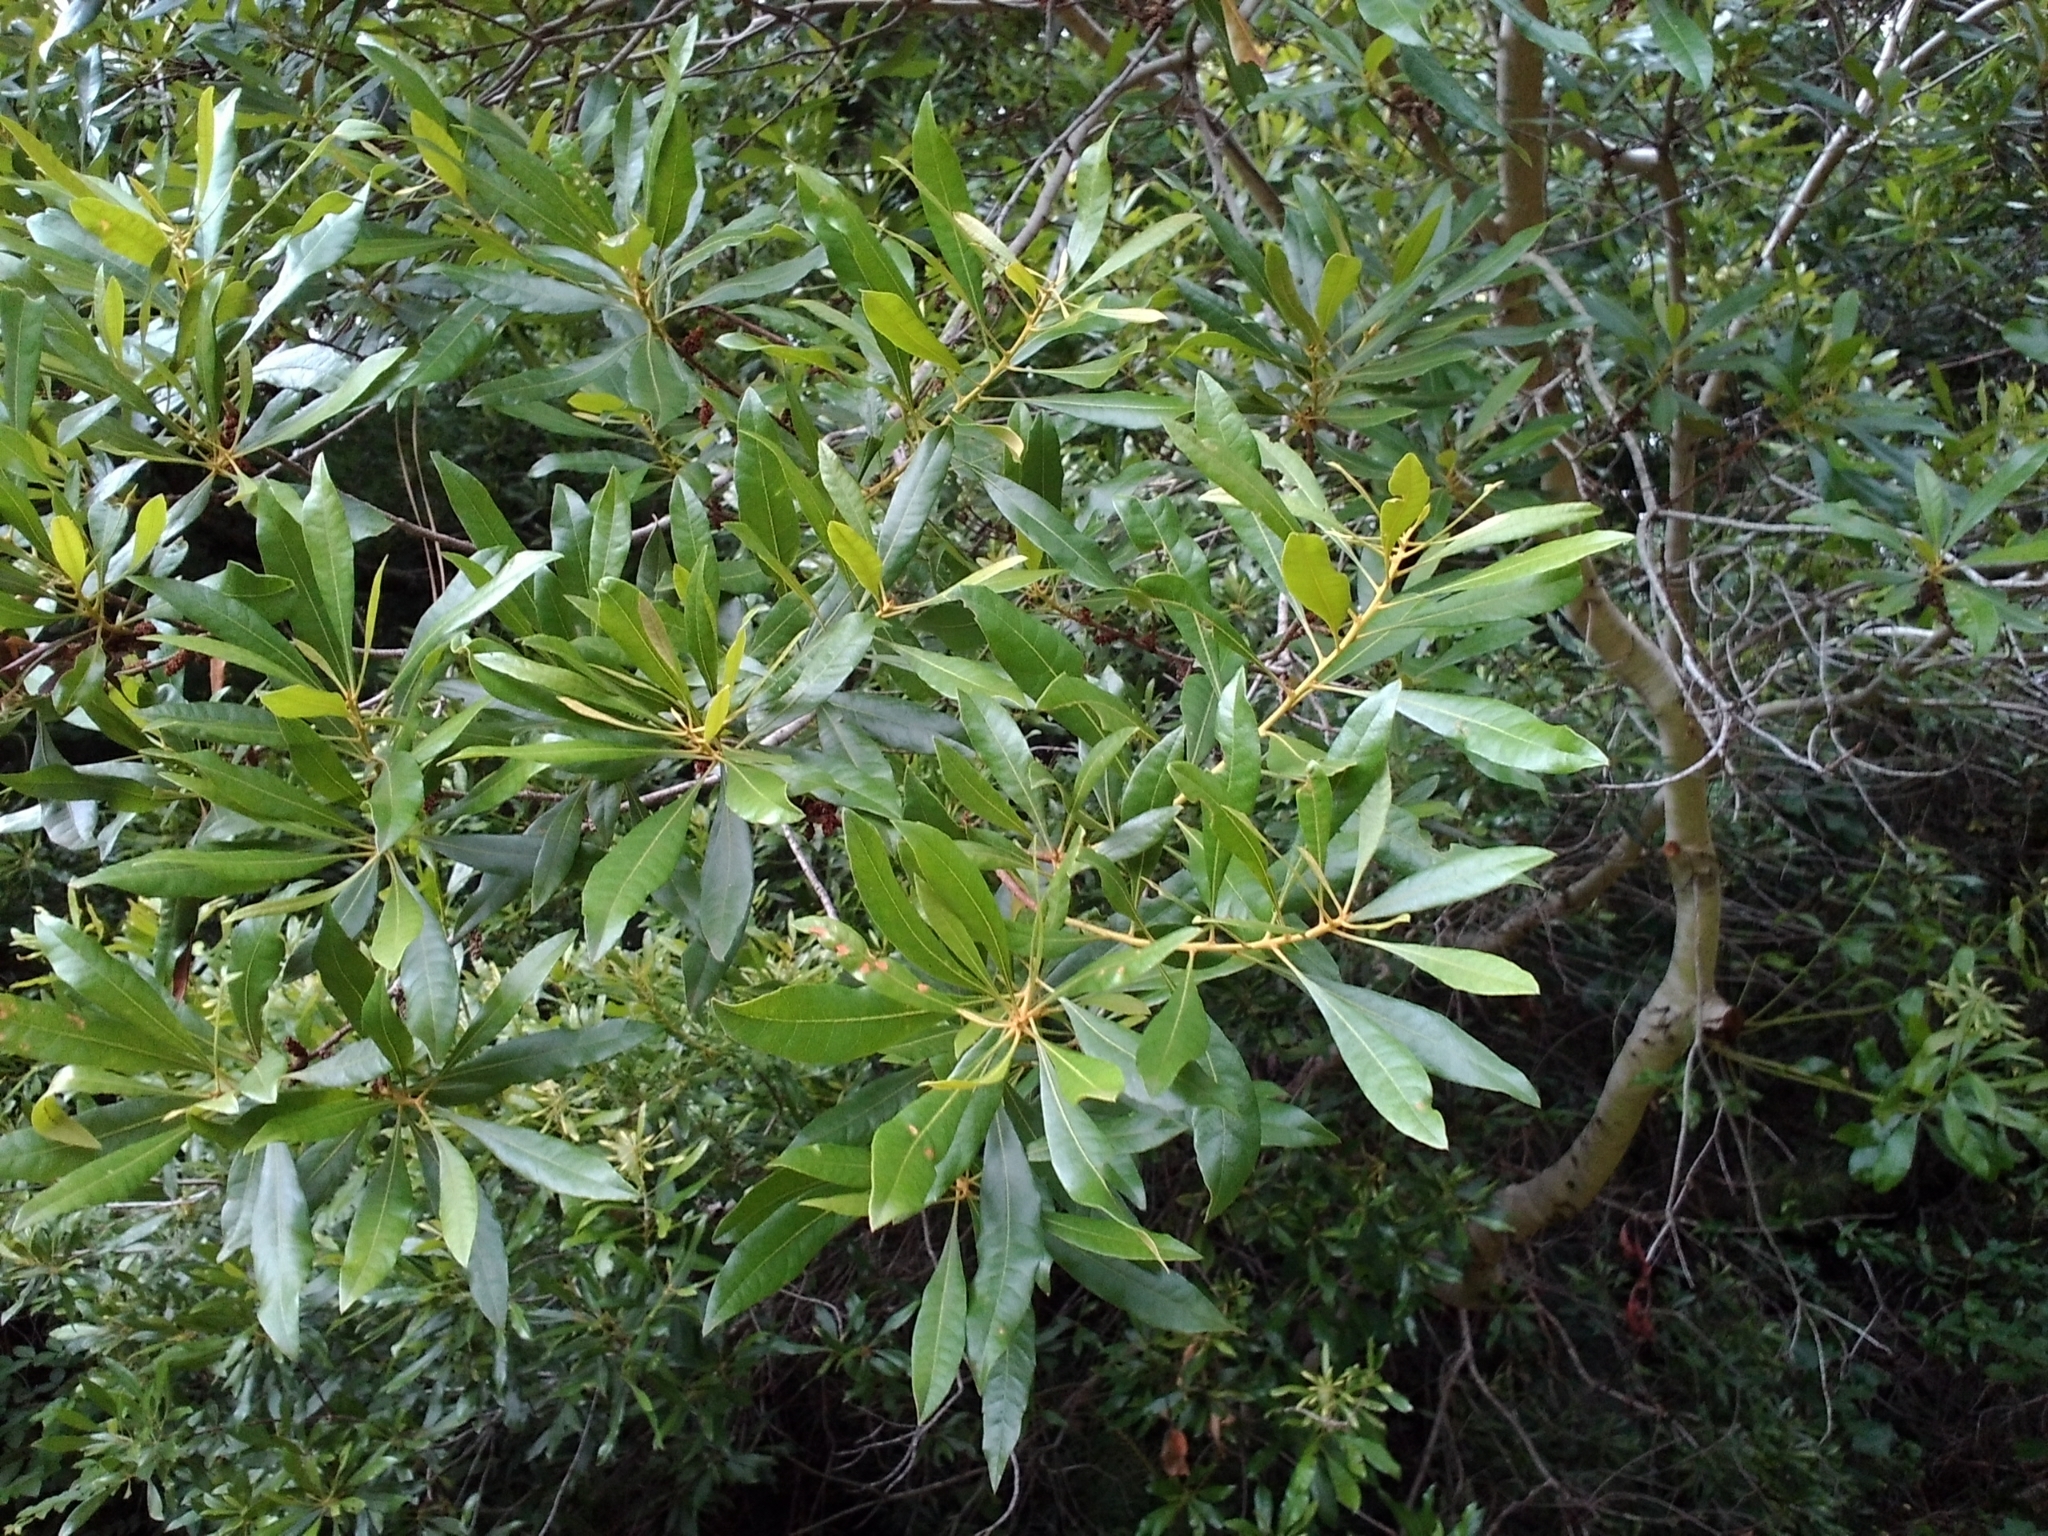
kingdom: Plantae
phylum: Tracheophyta
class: Magnoliopsida
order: Fagales
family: Myricaceae
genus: Morella
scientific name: Morella cerifera
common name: Wax myrtle
